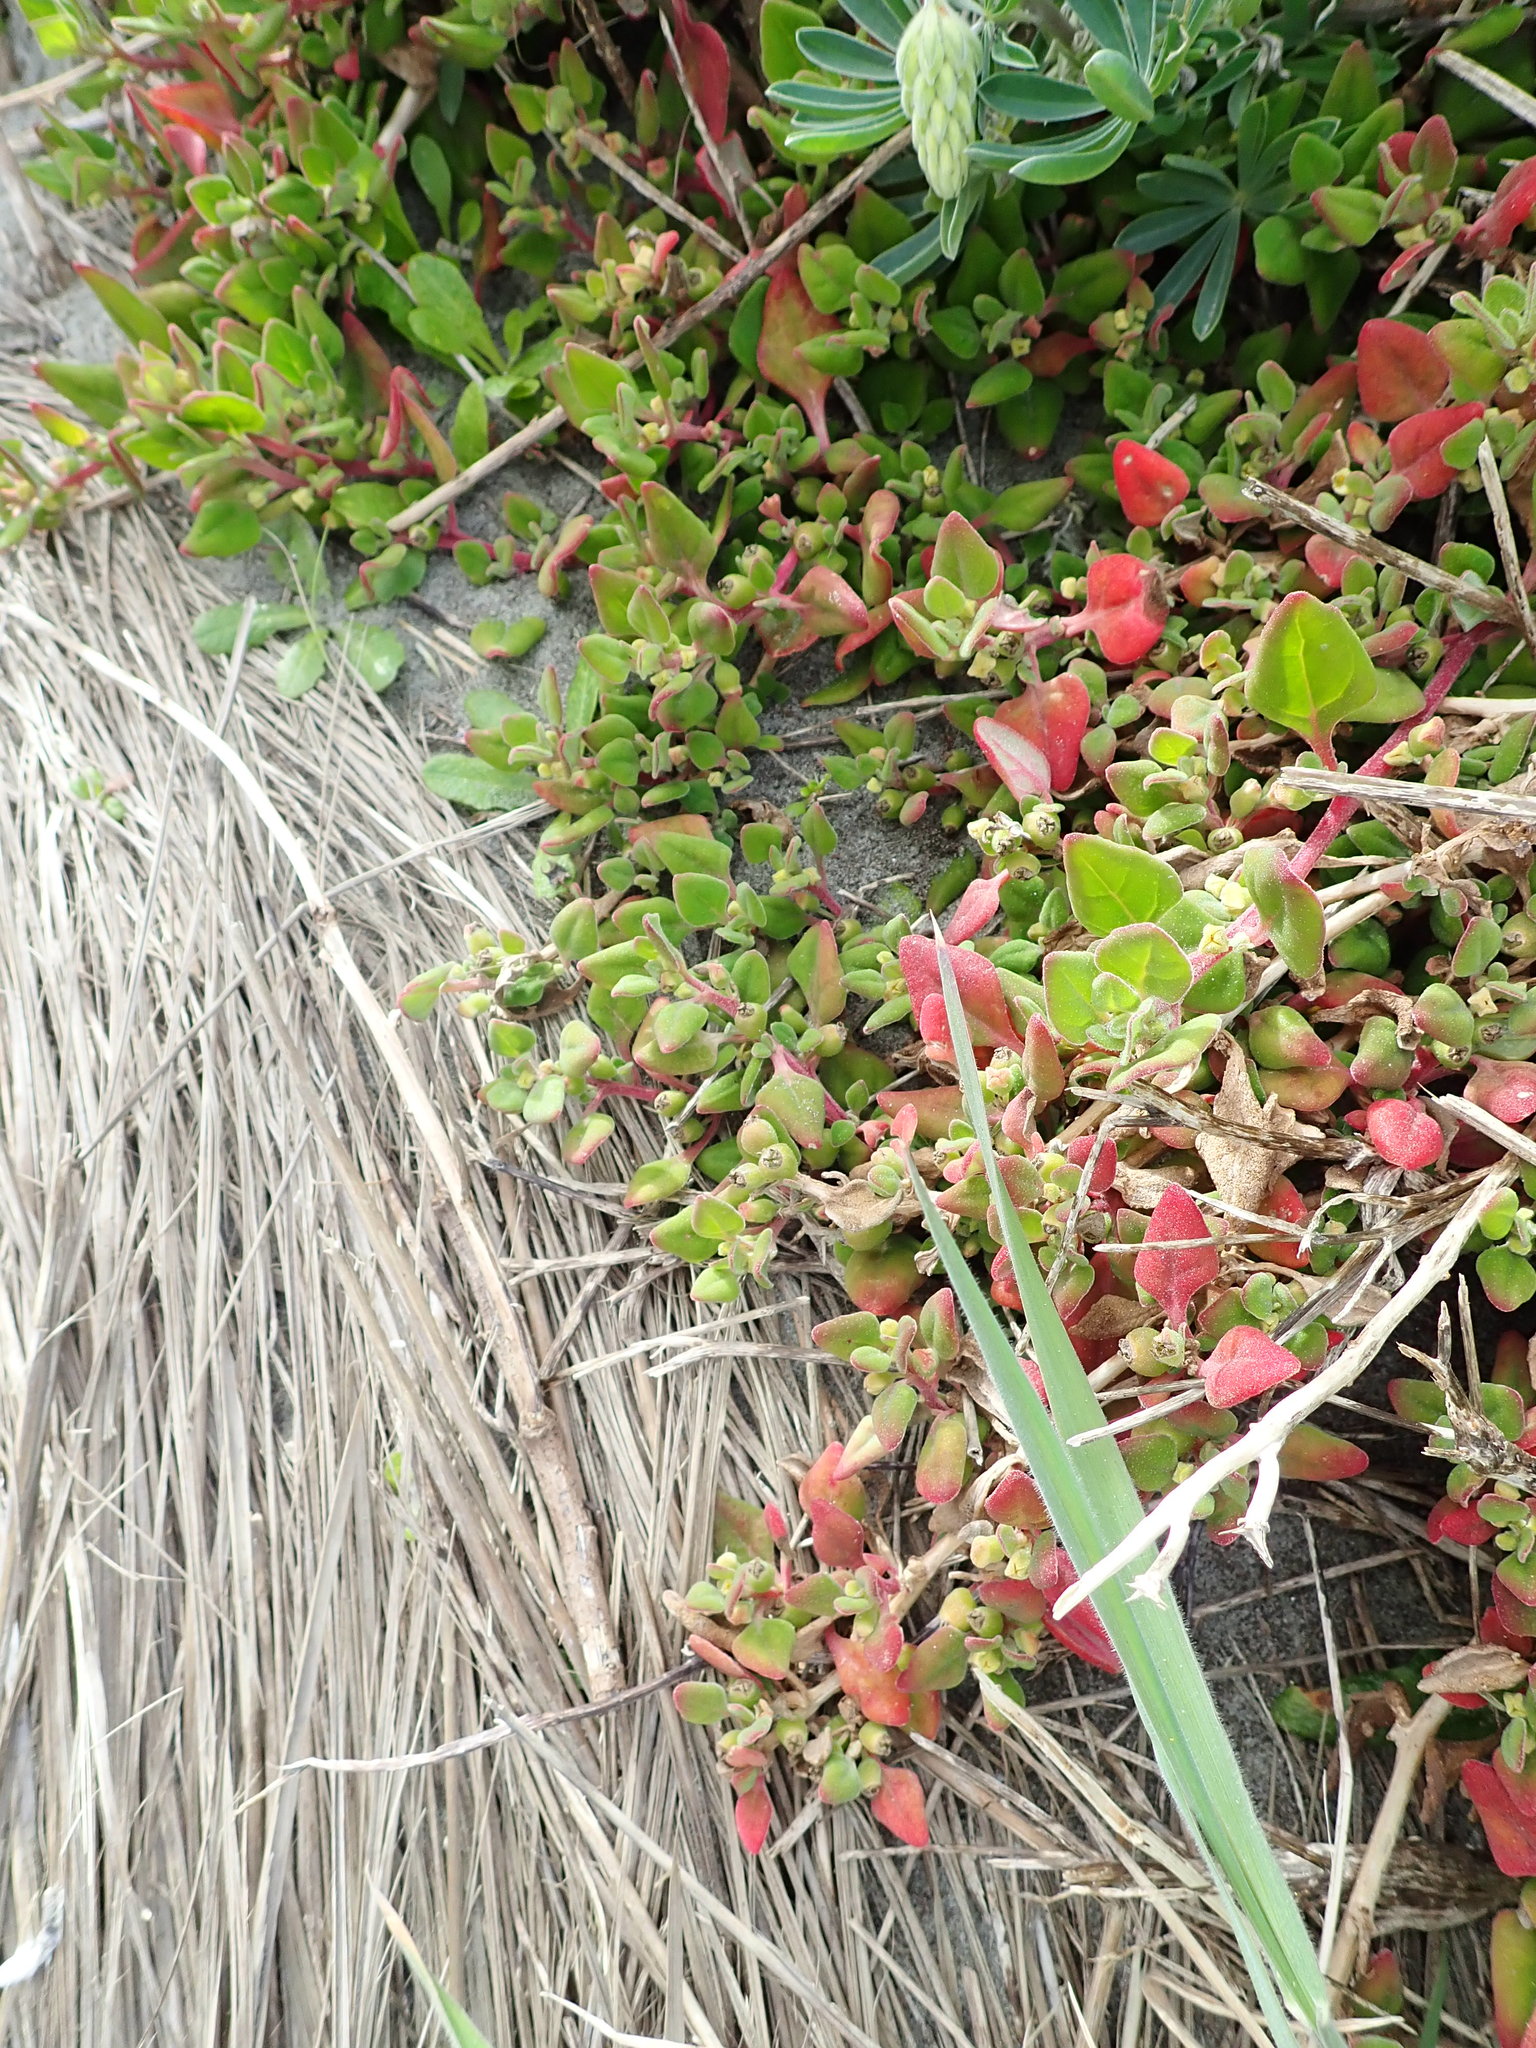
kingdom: Plantae
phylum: Tracheophyta
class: Magnoliopsida
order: Caryophyllales
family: Aizoaceae
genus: Tetragonia
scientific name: Tetragonia implexicoma
